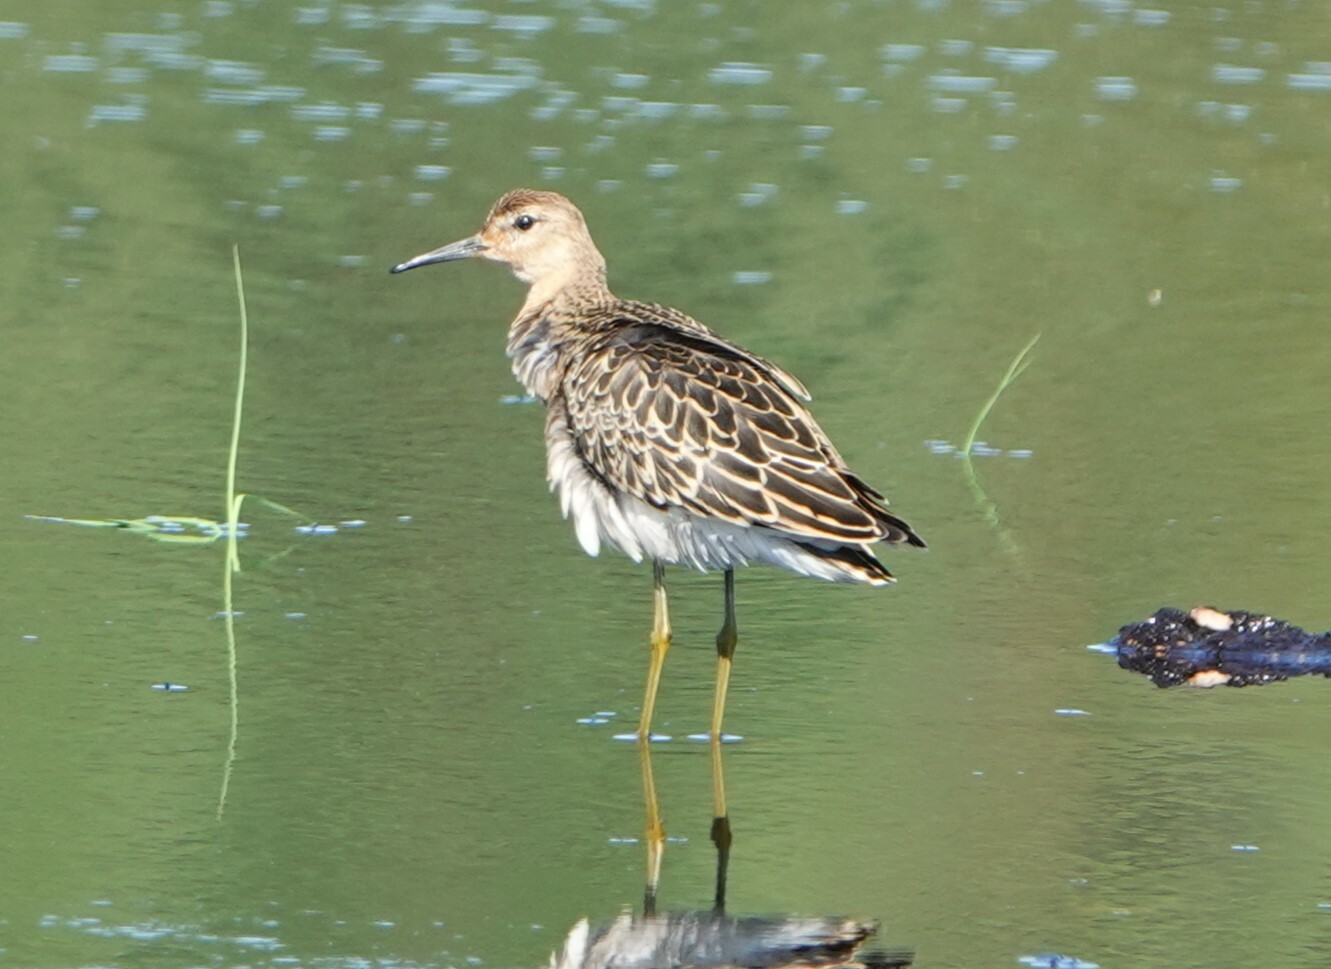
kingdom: Animalia
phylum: Chordata
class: Aves
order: Charadriiformes
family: Scolopacidae
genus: Calidris
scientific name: Calidris pugnax
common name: Ruff
